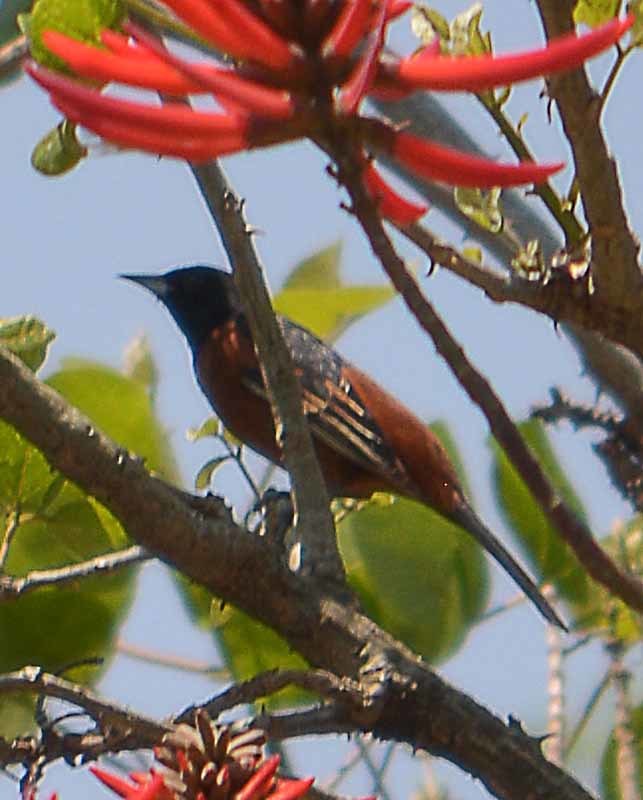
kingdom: Animalia
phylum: Chordata
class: Aves
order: Passeriformes
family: Icteridae
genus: Icterus
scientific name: Icterus spurius
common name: Orchard oriole
